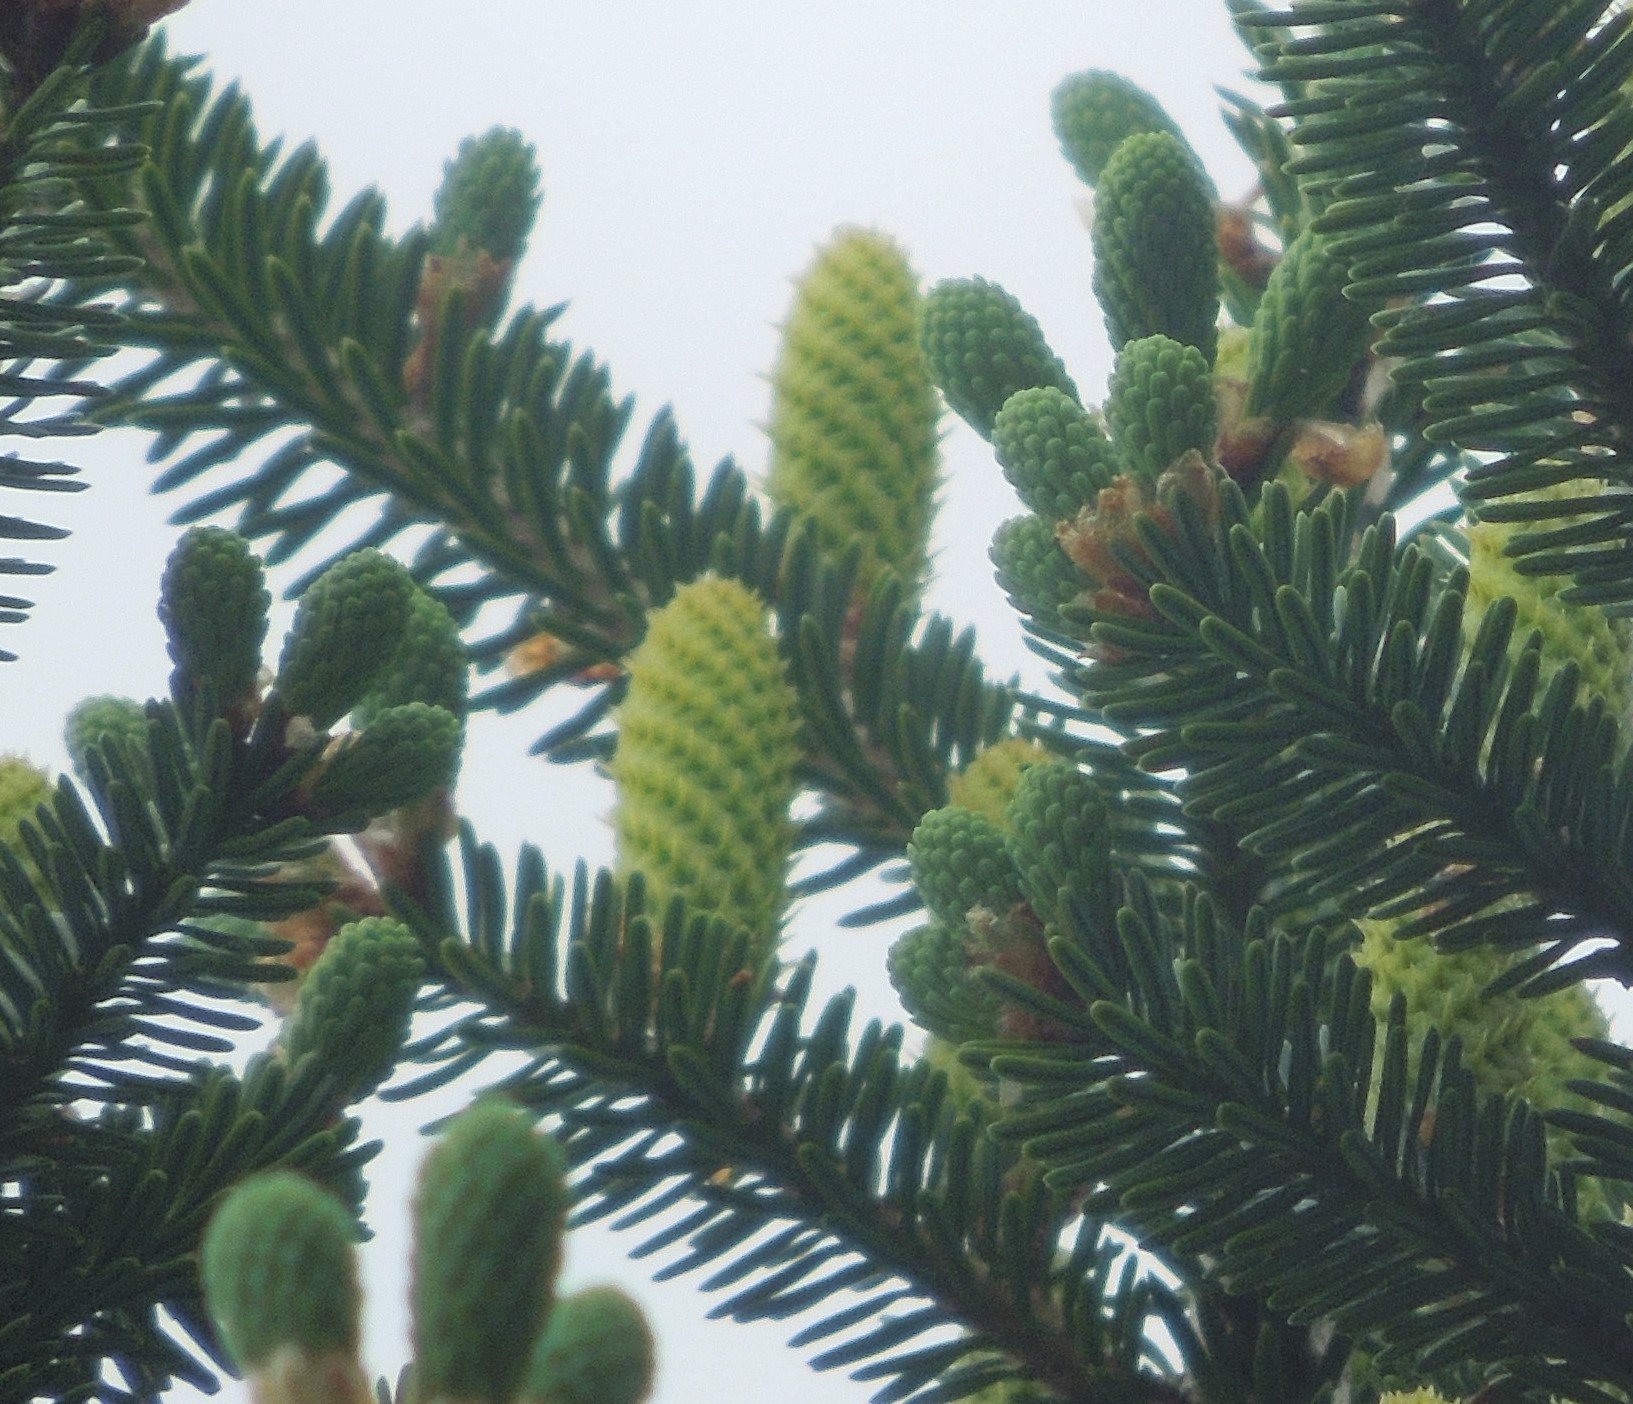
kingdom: Plantae
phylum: Tracheophyta
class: Pinopsida
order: Pinales
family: Pinaceae
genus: Abies
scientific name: Abies balsamea
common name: Balsam fir
